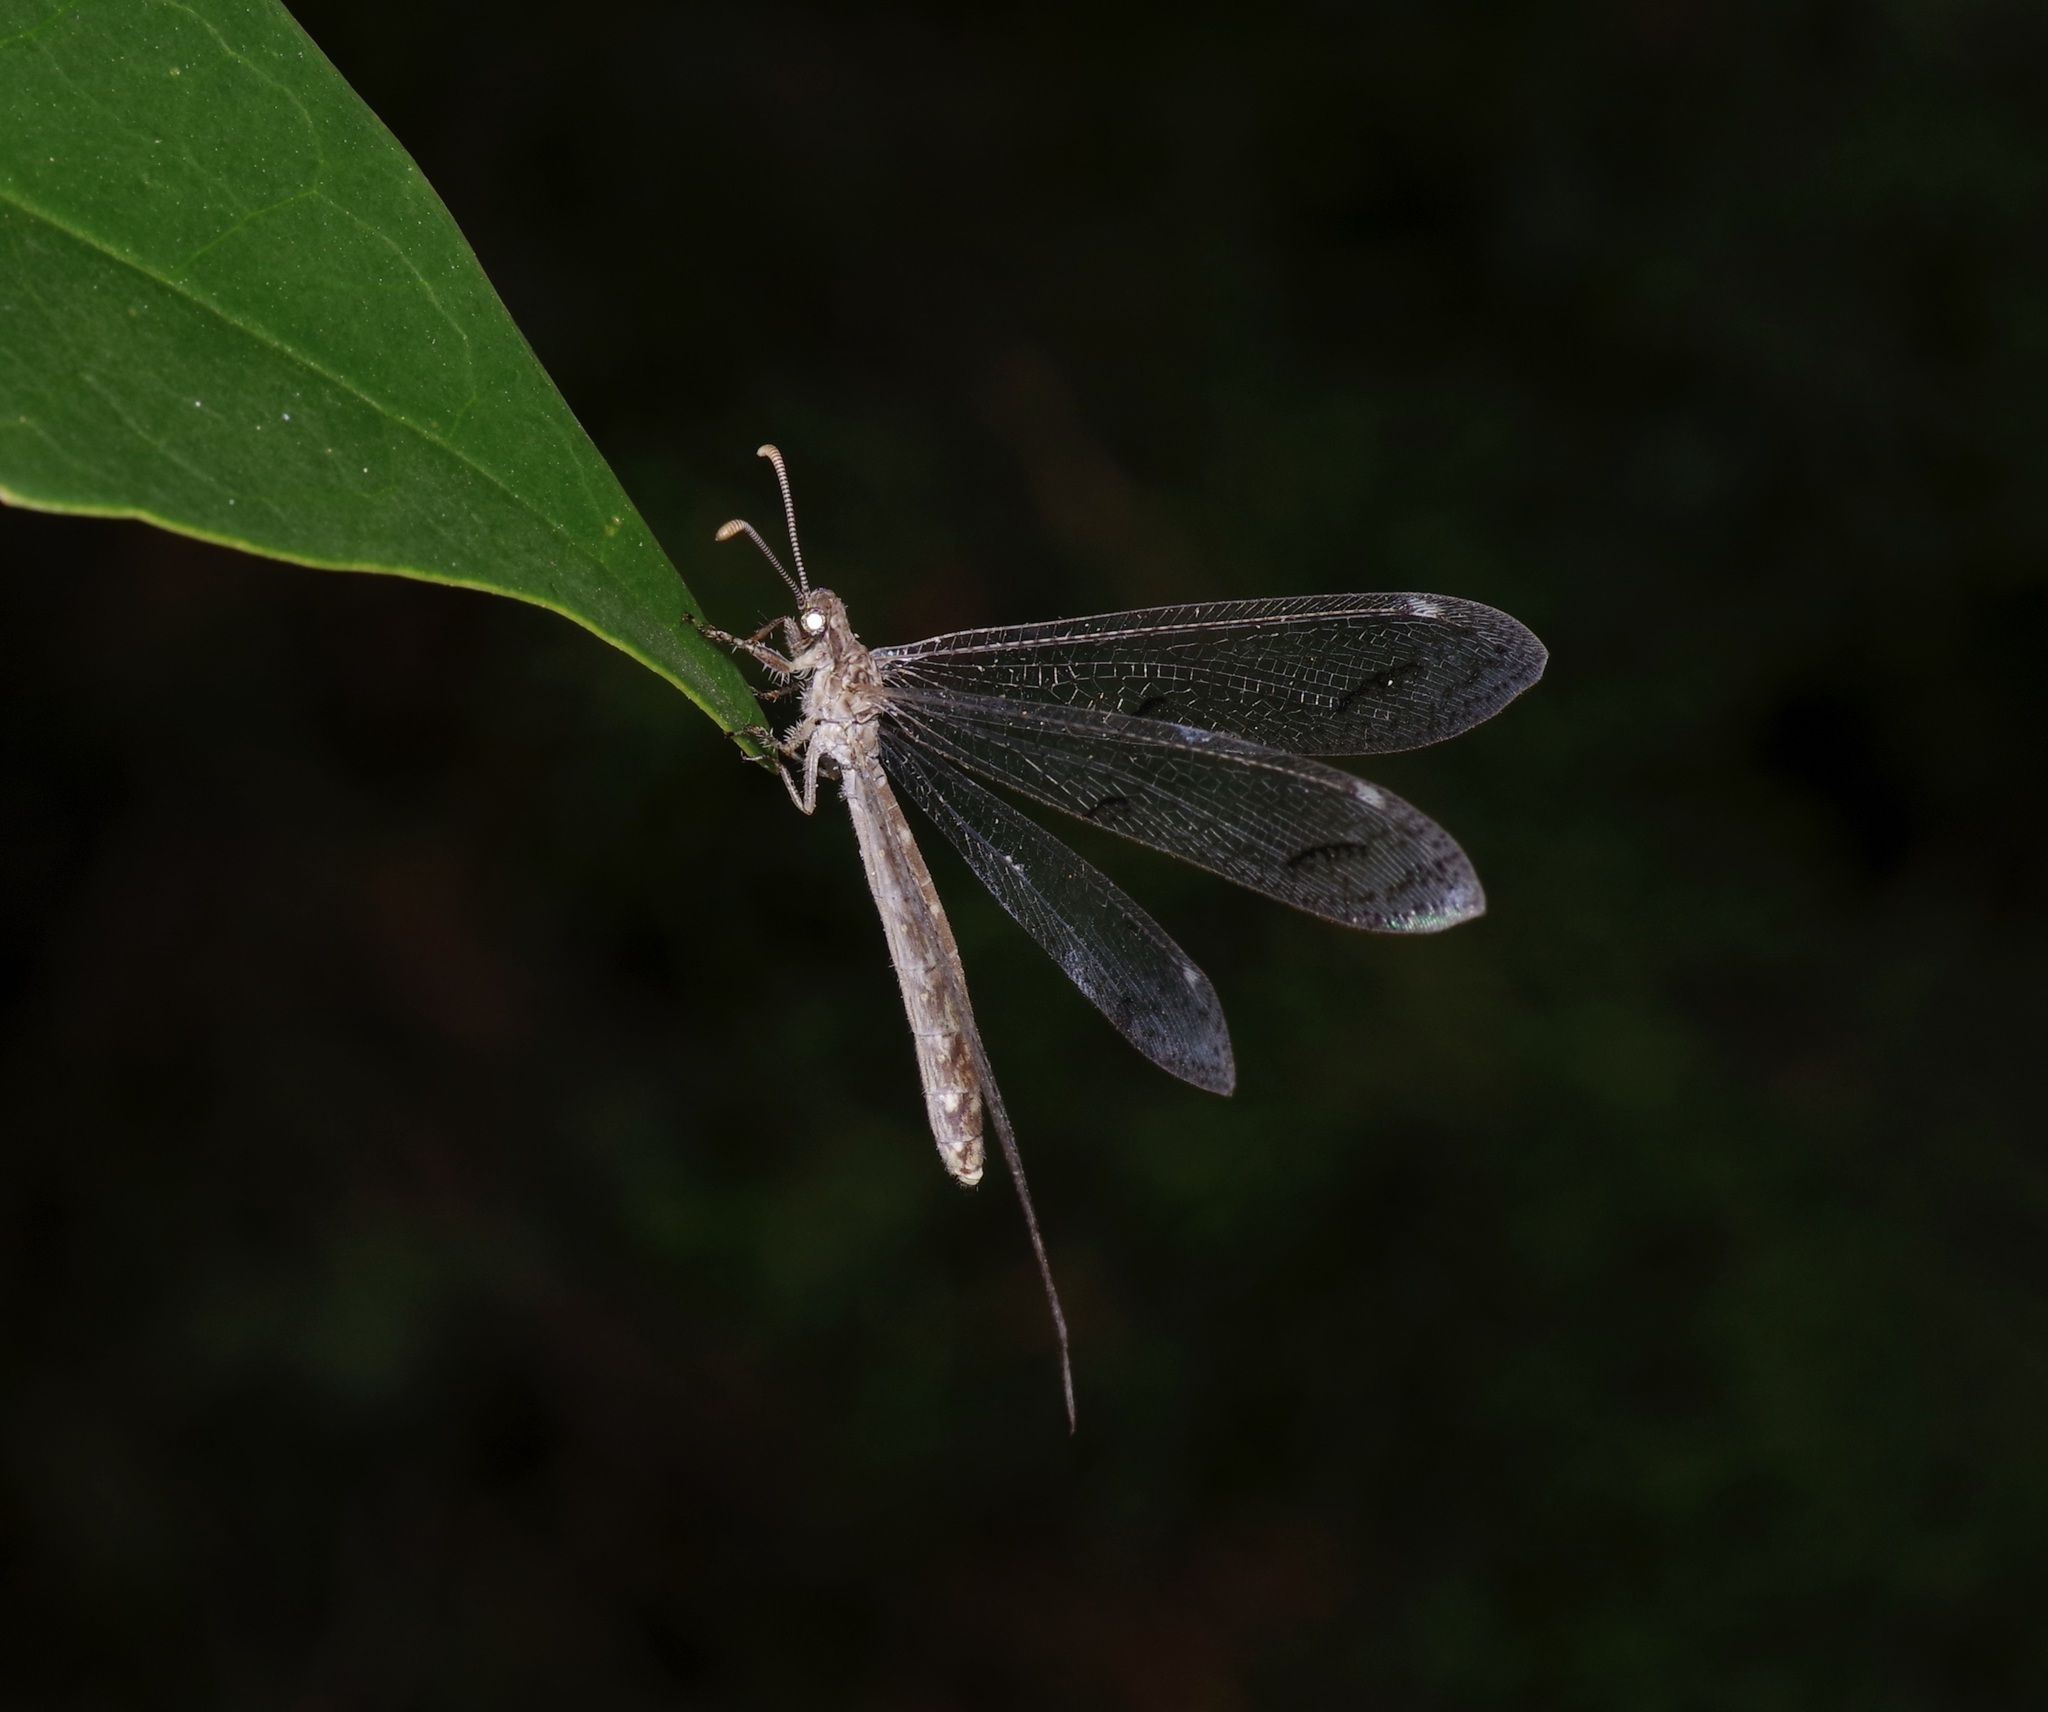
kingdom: Animalia
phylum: Arthropoda
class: Insecta
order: Neuroptera
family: Myrmeleontidae
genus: Euptilon
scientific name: Euptilon ornatum
